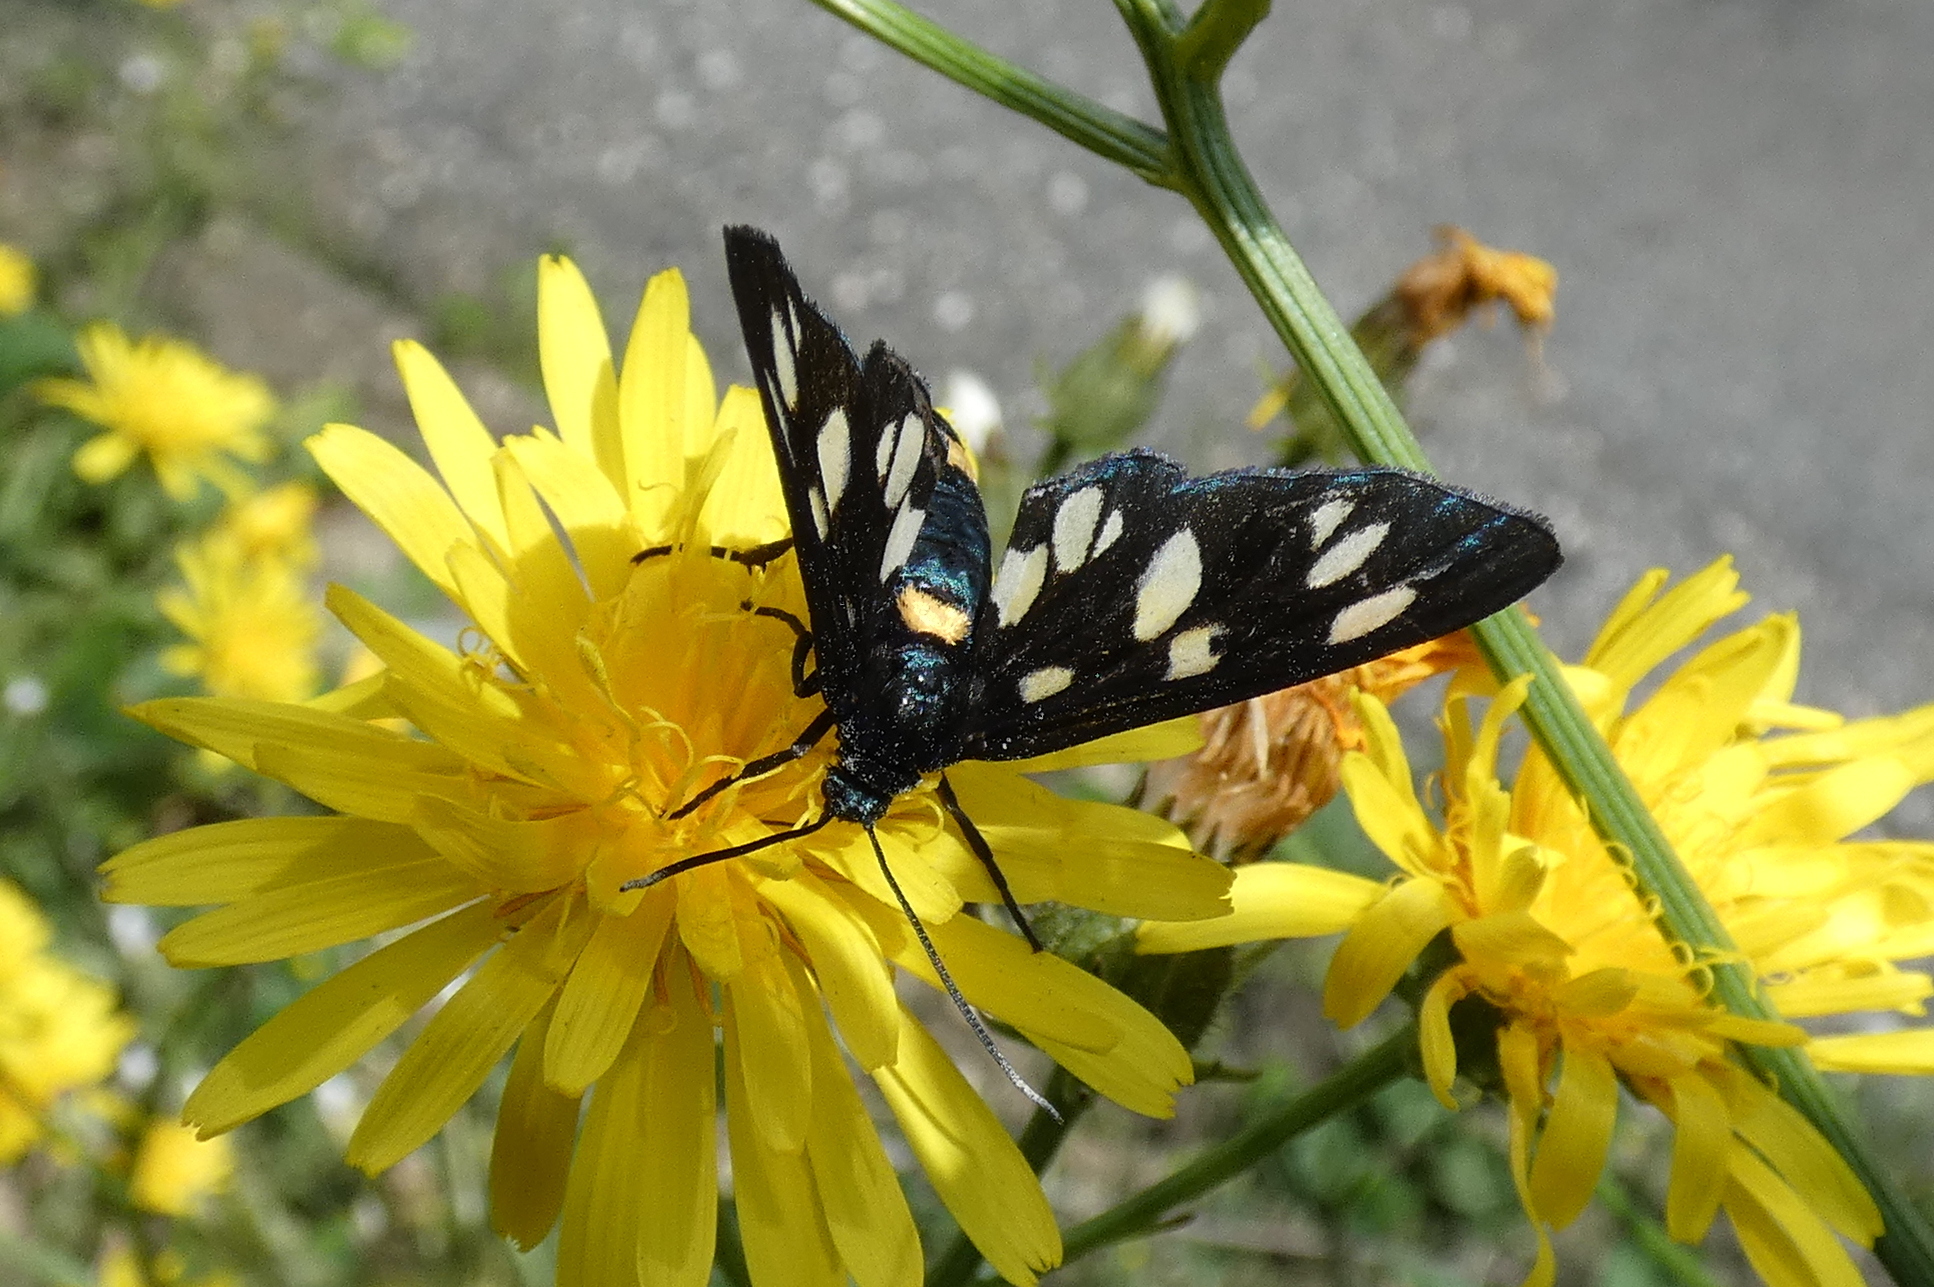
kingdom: Animalia
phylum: Arthropoda
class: Insecta
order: Lepidoptera
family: Erebidae
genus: Amata
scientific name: Amata phegea
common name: Nine-spotted
